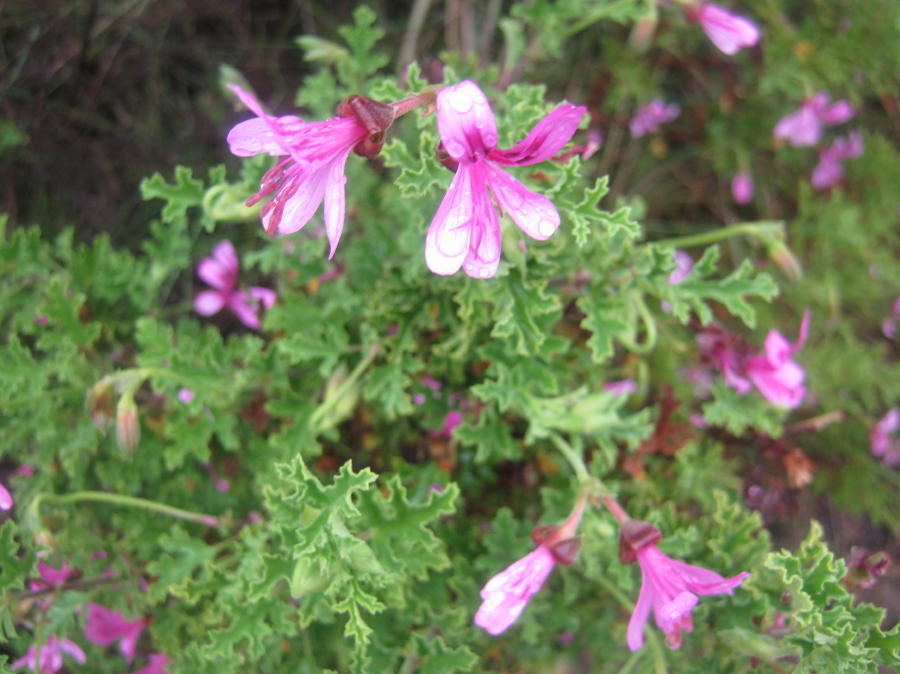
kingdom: Plantae
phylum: Tracheophyta
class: Magnoliopsida
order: Geraniales
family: Geraniaceae
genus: Pelargonium
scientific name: Pelargonium quercifolium
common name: Oakleaf geranium
